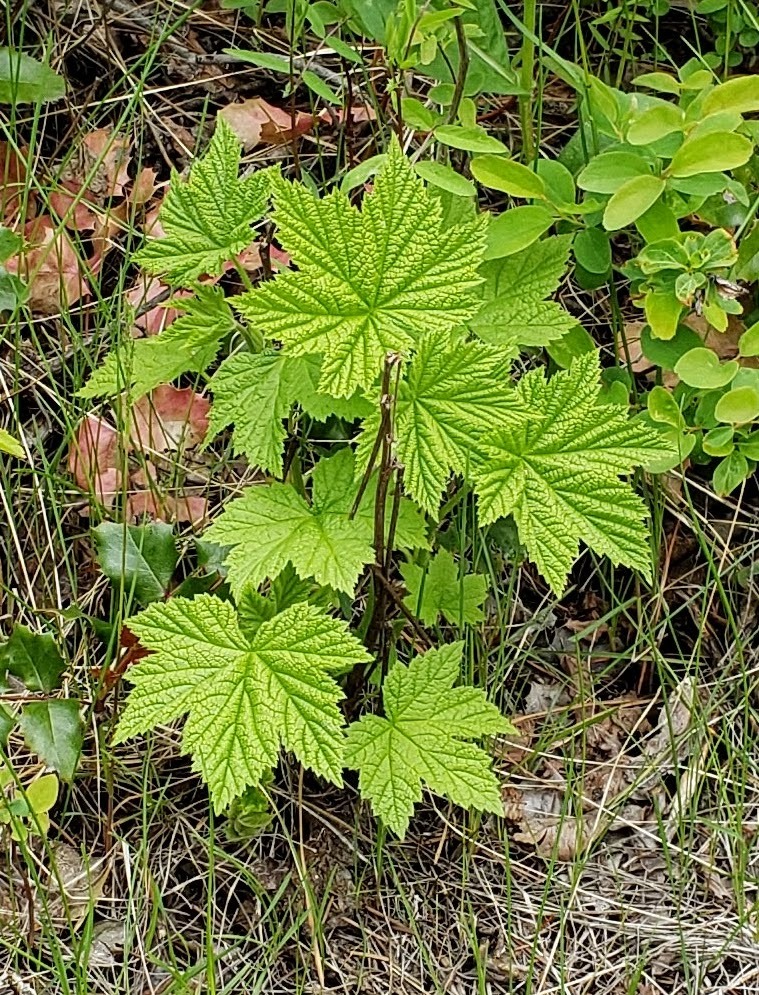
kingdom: Plantae
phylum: Tracheophyta
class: Magnoliopsida
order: Rosales
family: Rosaceae
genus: Rubus
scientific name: Rubus parviflorus
